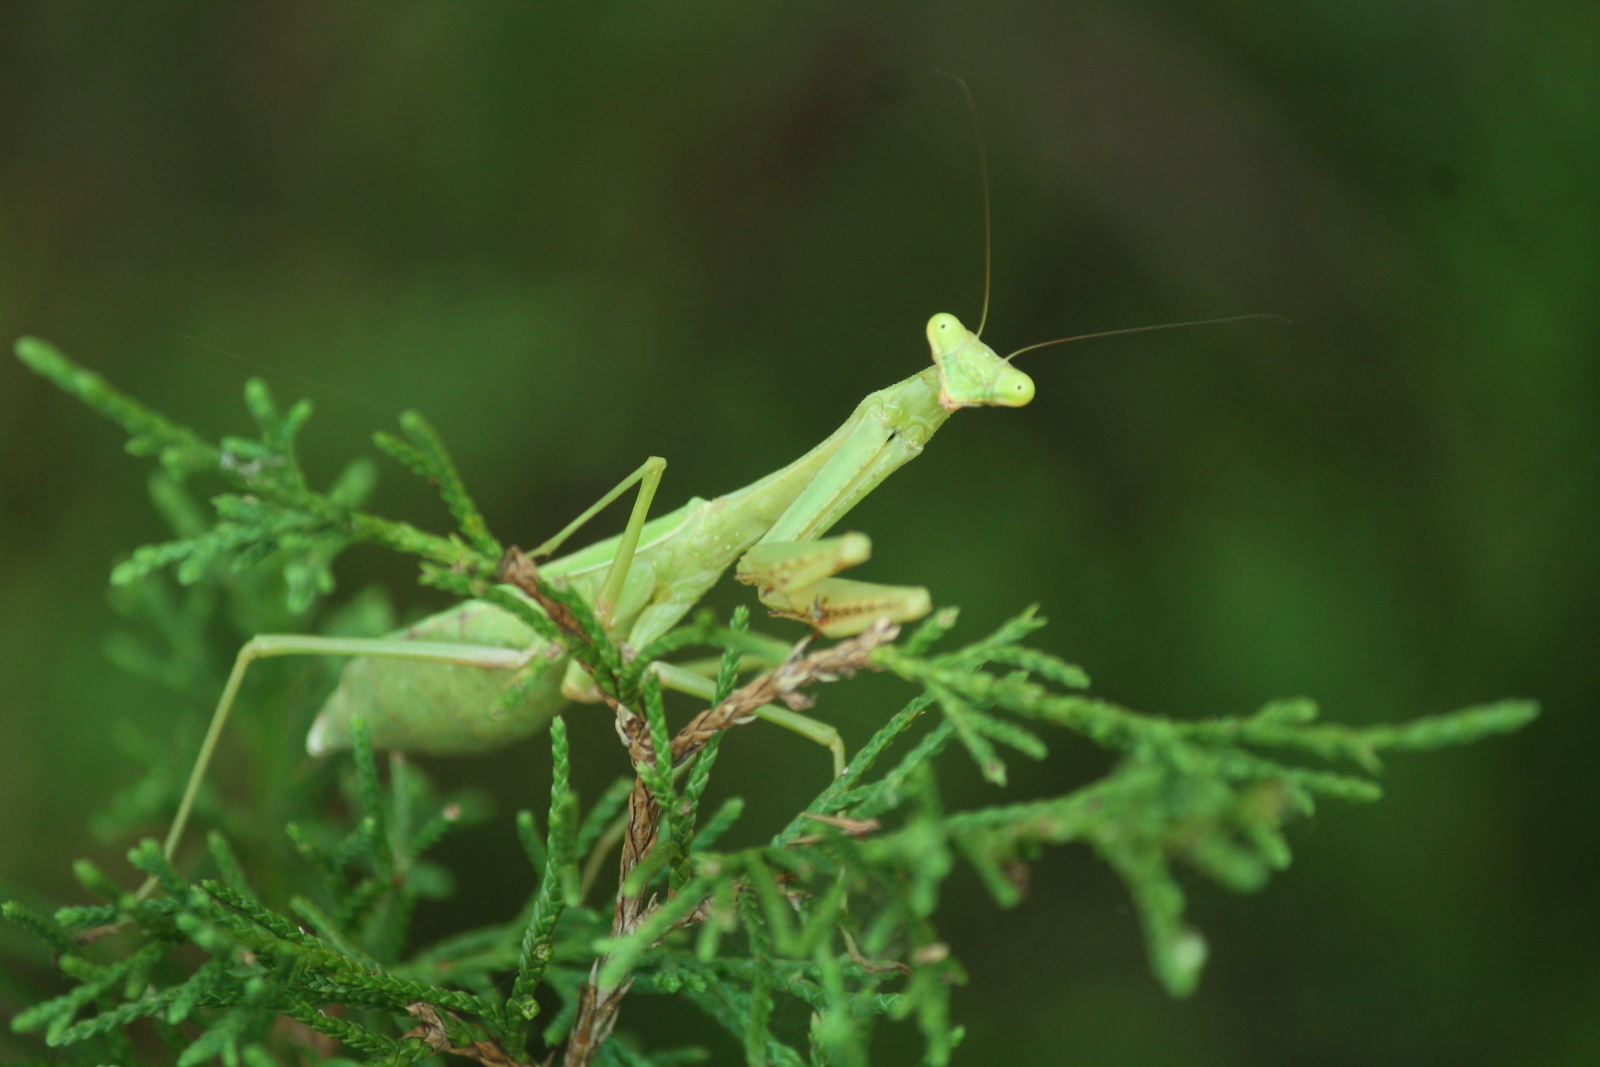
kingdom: Animalia
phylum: Arthropoda
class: Insecta
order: Mantodea
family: Mantidae
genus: Stagmomantis
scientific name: Stagmomantis carolina
